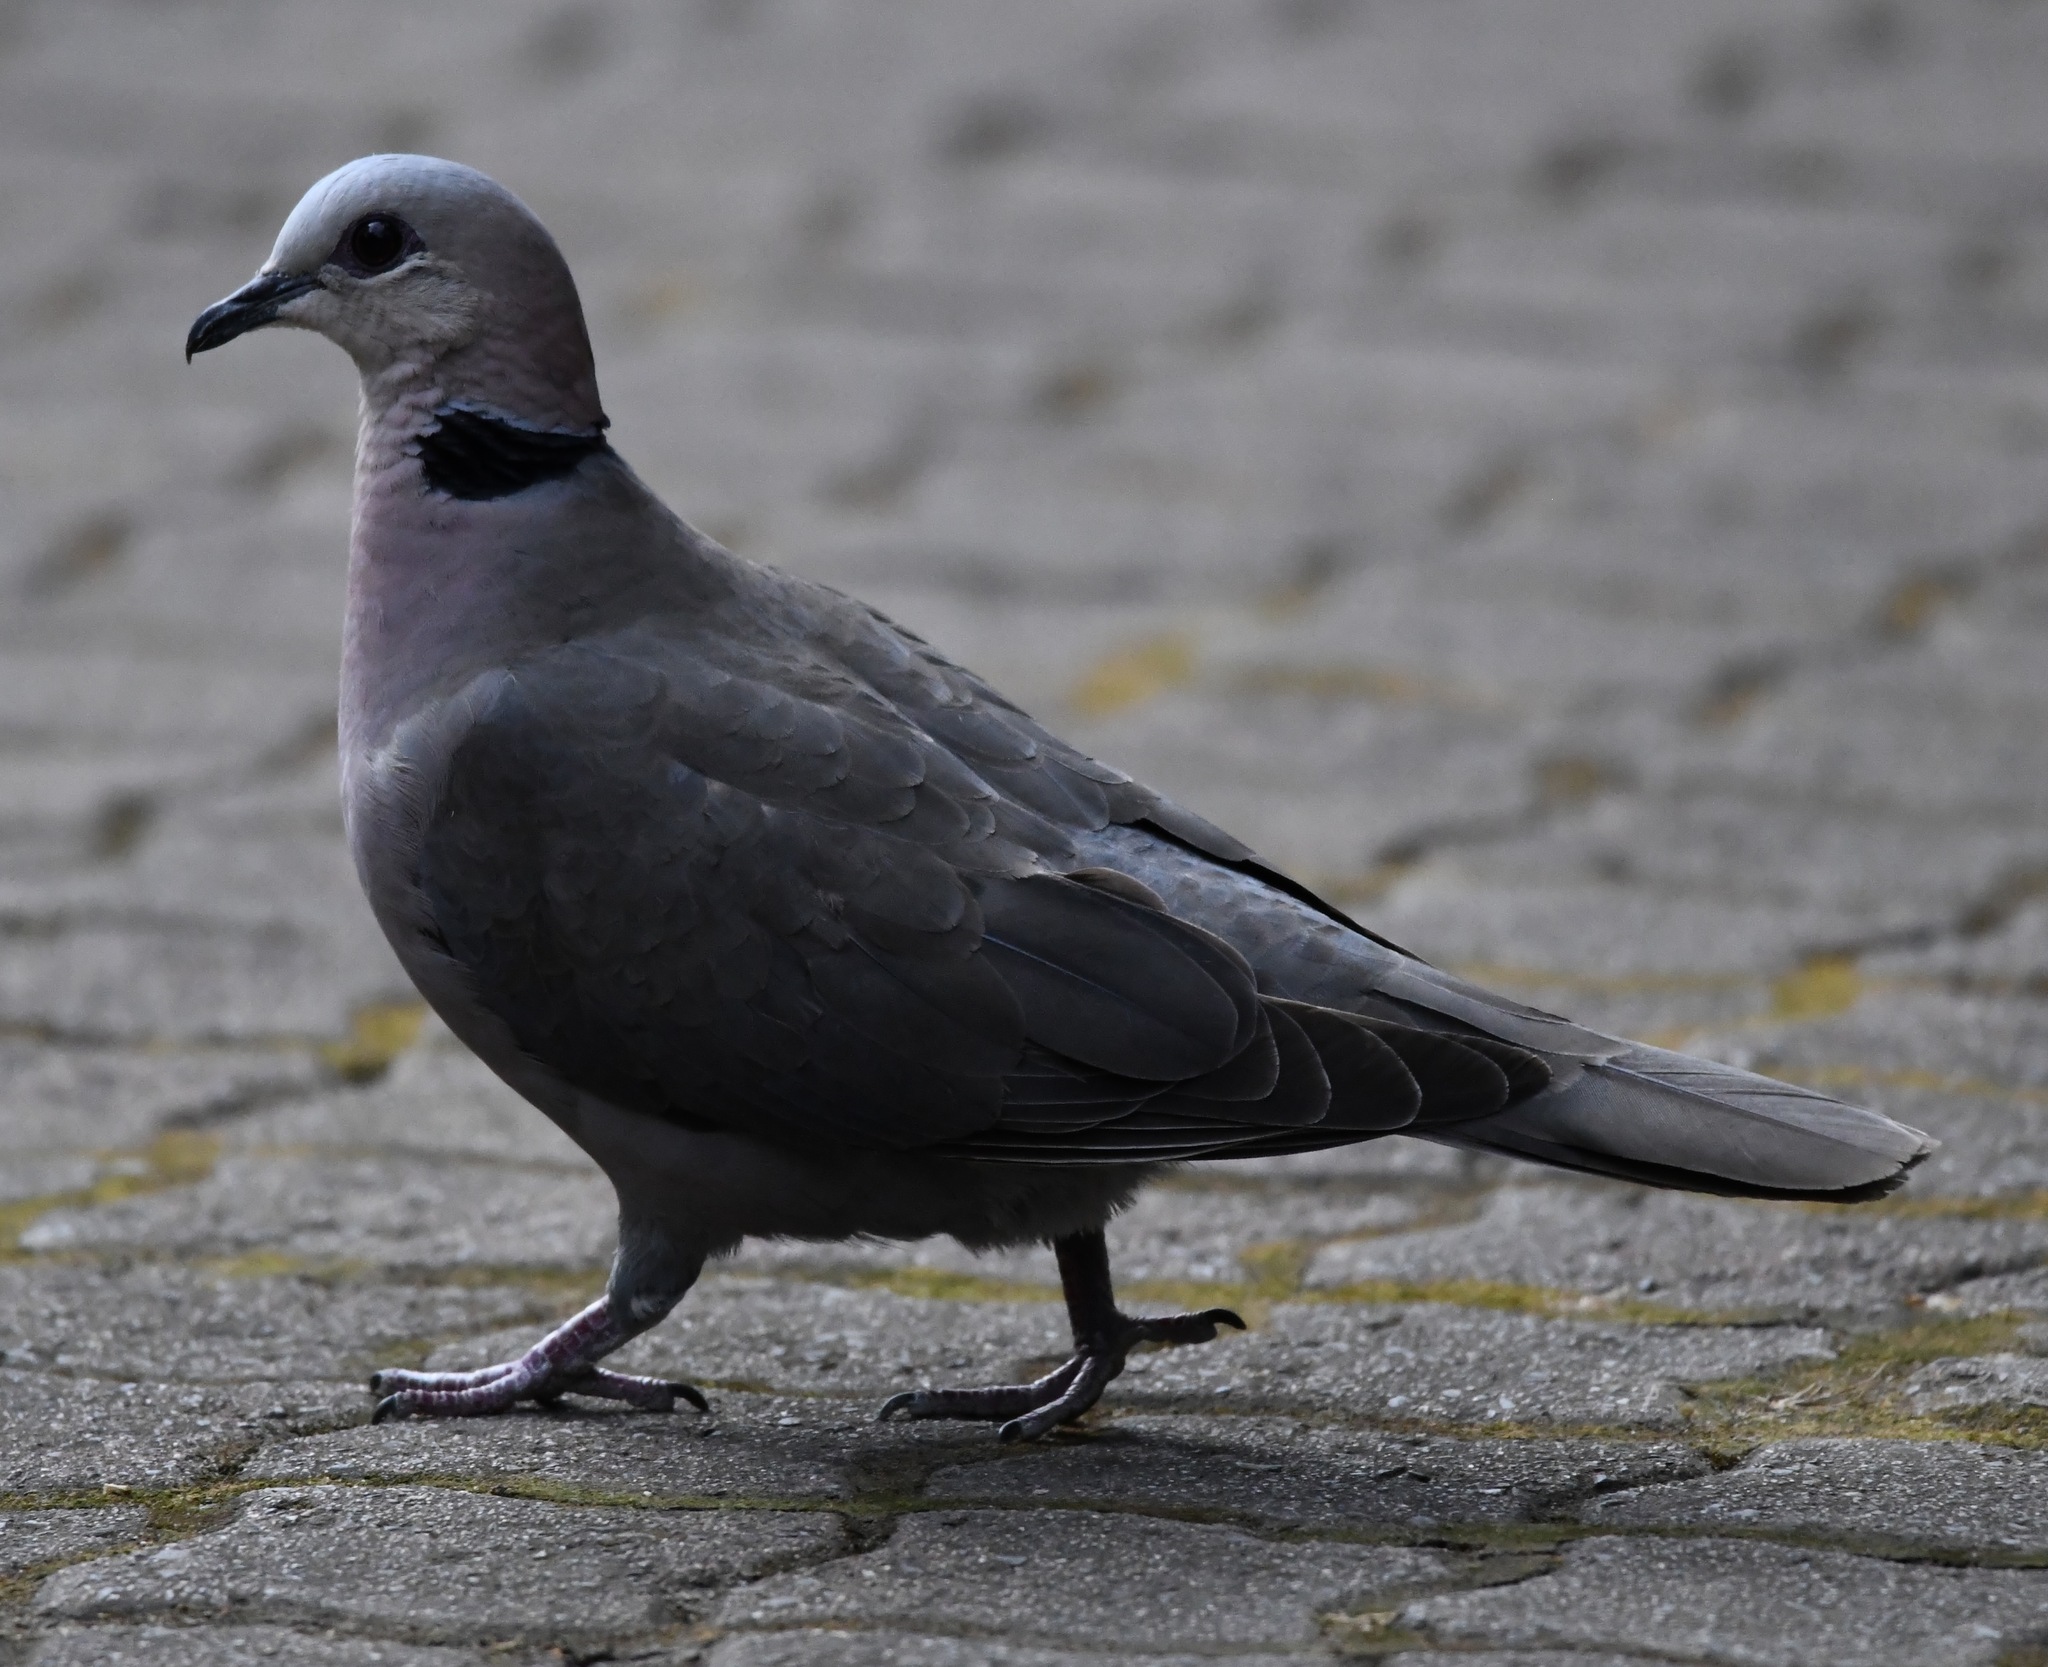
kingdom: Animalia
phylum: Chordata
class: Aves
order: Columbiformes
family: Columbidae
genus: Streptopelia
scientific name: Streptopelia semitorquata
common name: Red-eyed dove
